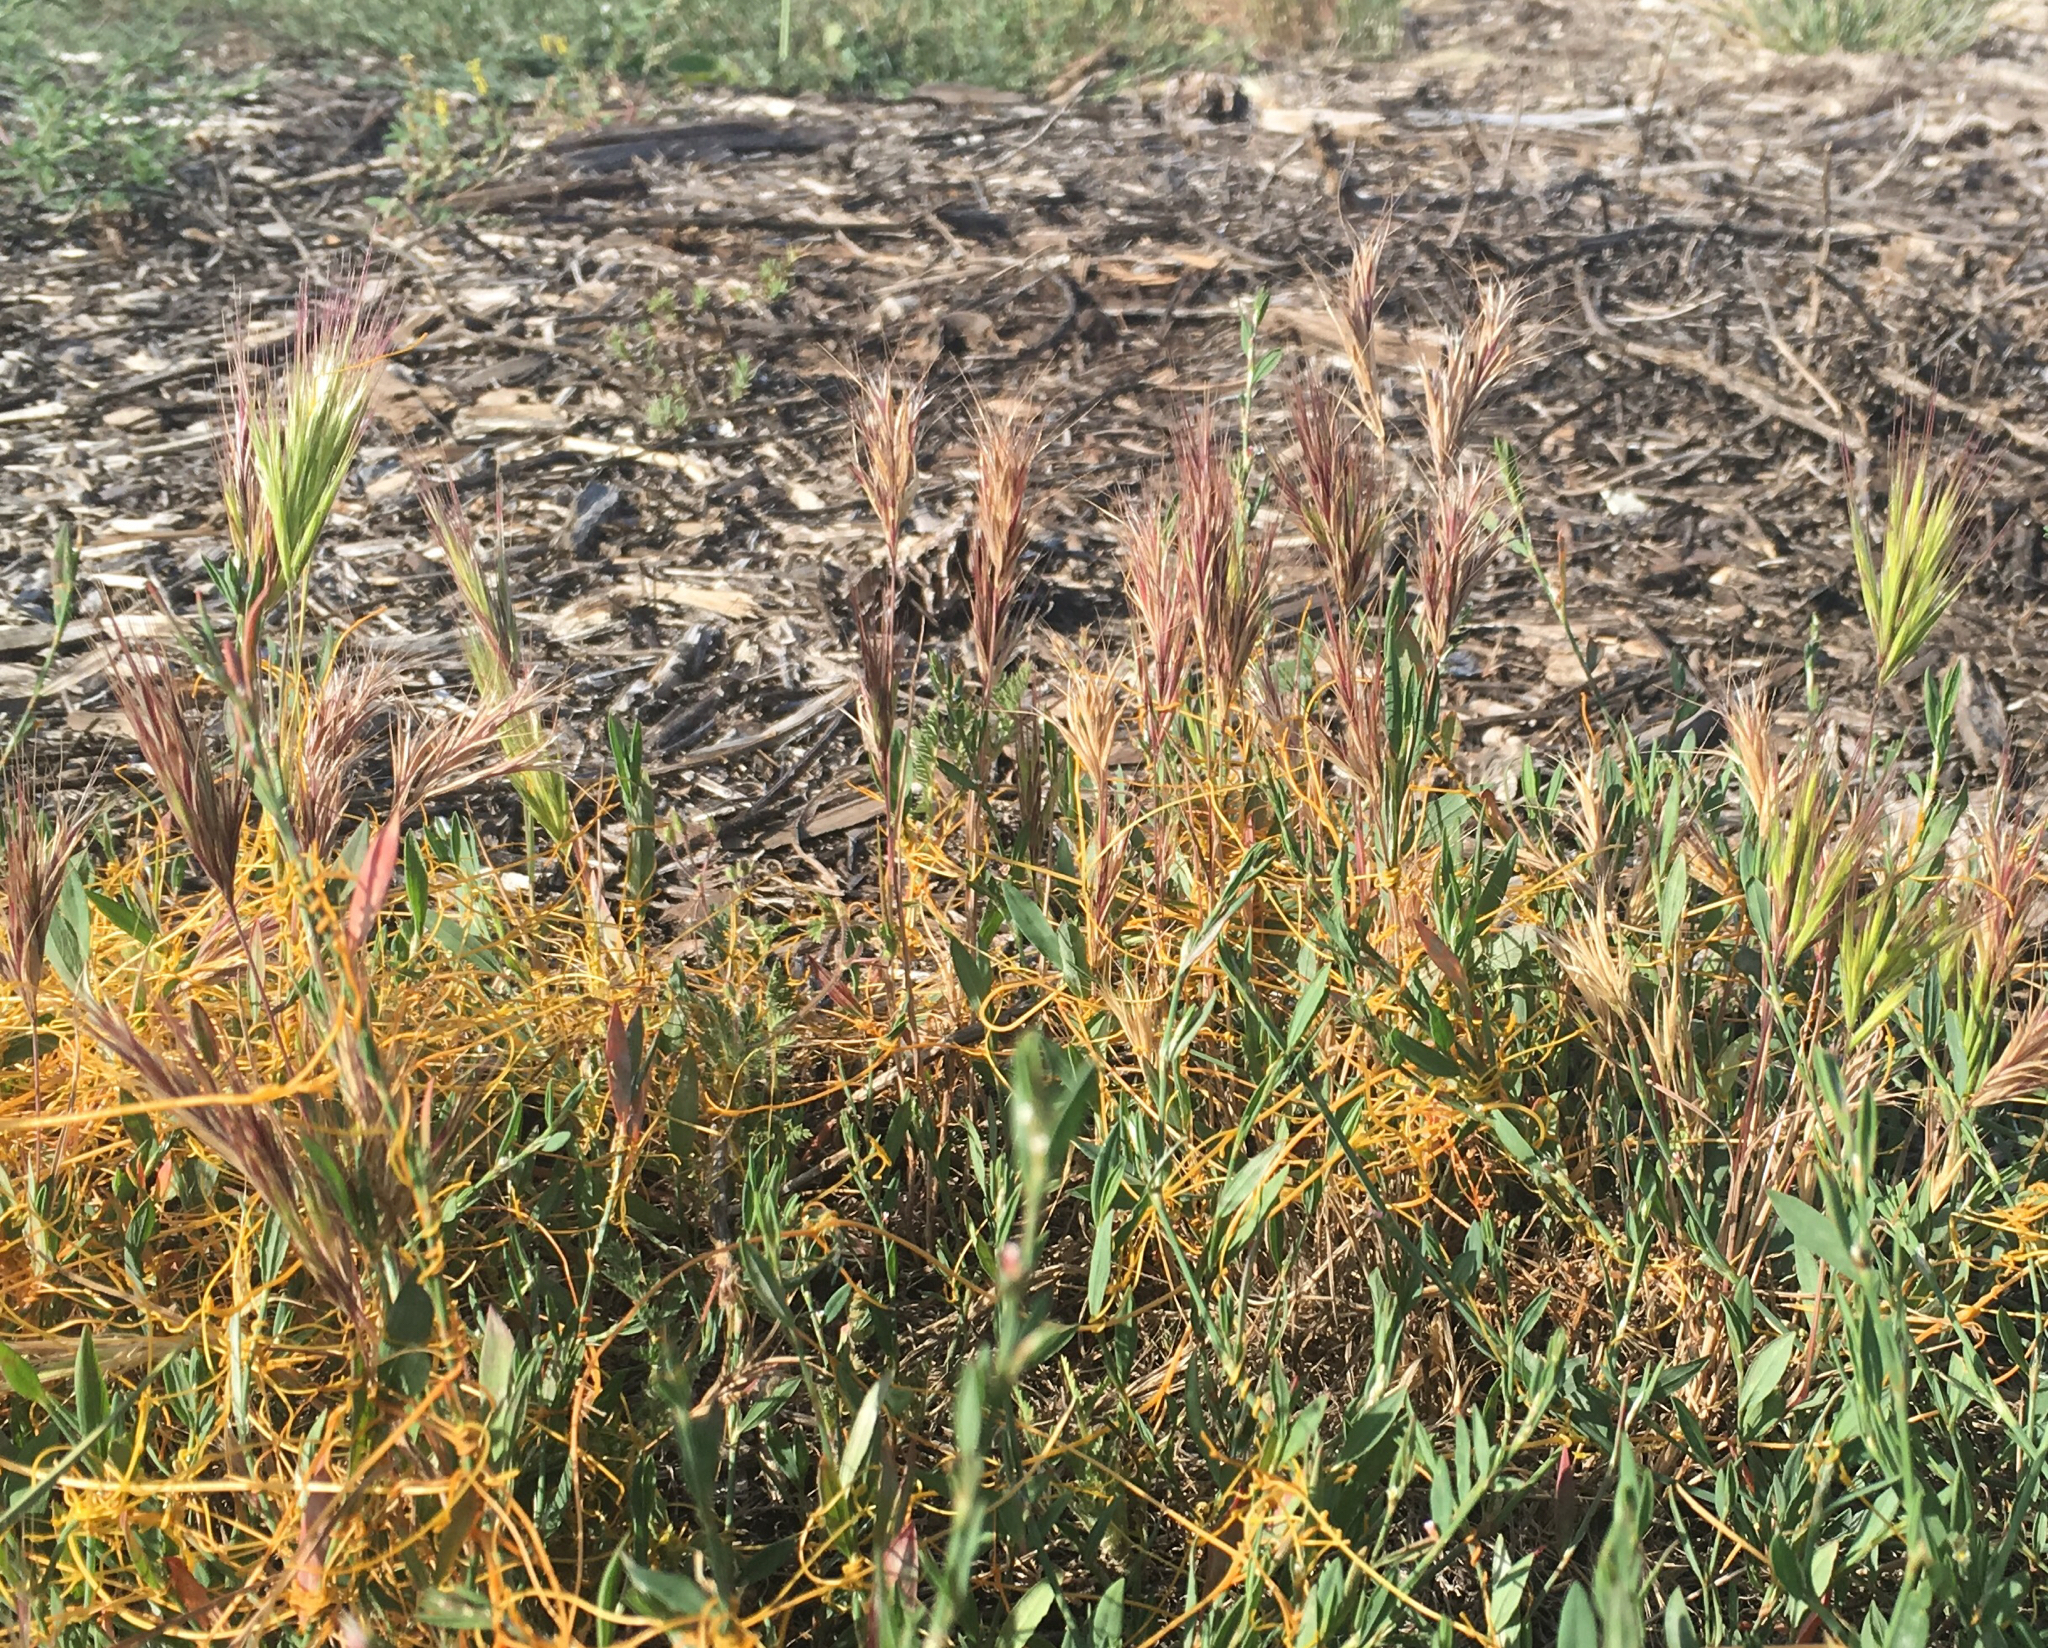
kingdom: Plantae
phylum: Tracheophyta
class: Liliopsida
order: Poales
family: Poaceae
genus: Bromus
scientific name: Bromus rubens
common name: Red brome
